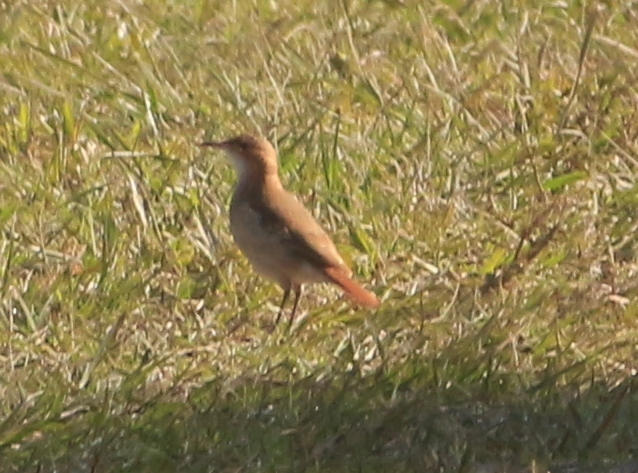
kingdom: Animalia
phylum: Chordata
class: Aves
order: Passeriformes
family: Furnariidae
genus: Furnarius
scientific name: Furnarius rufus
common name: Rufous hornero
